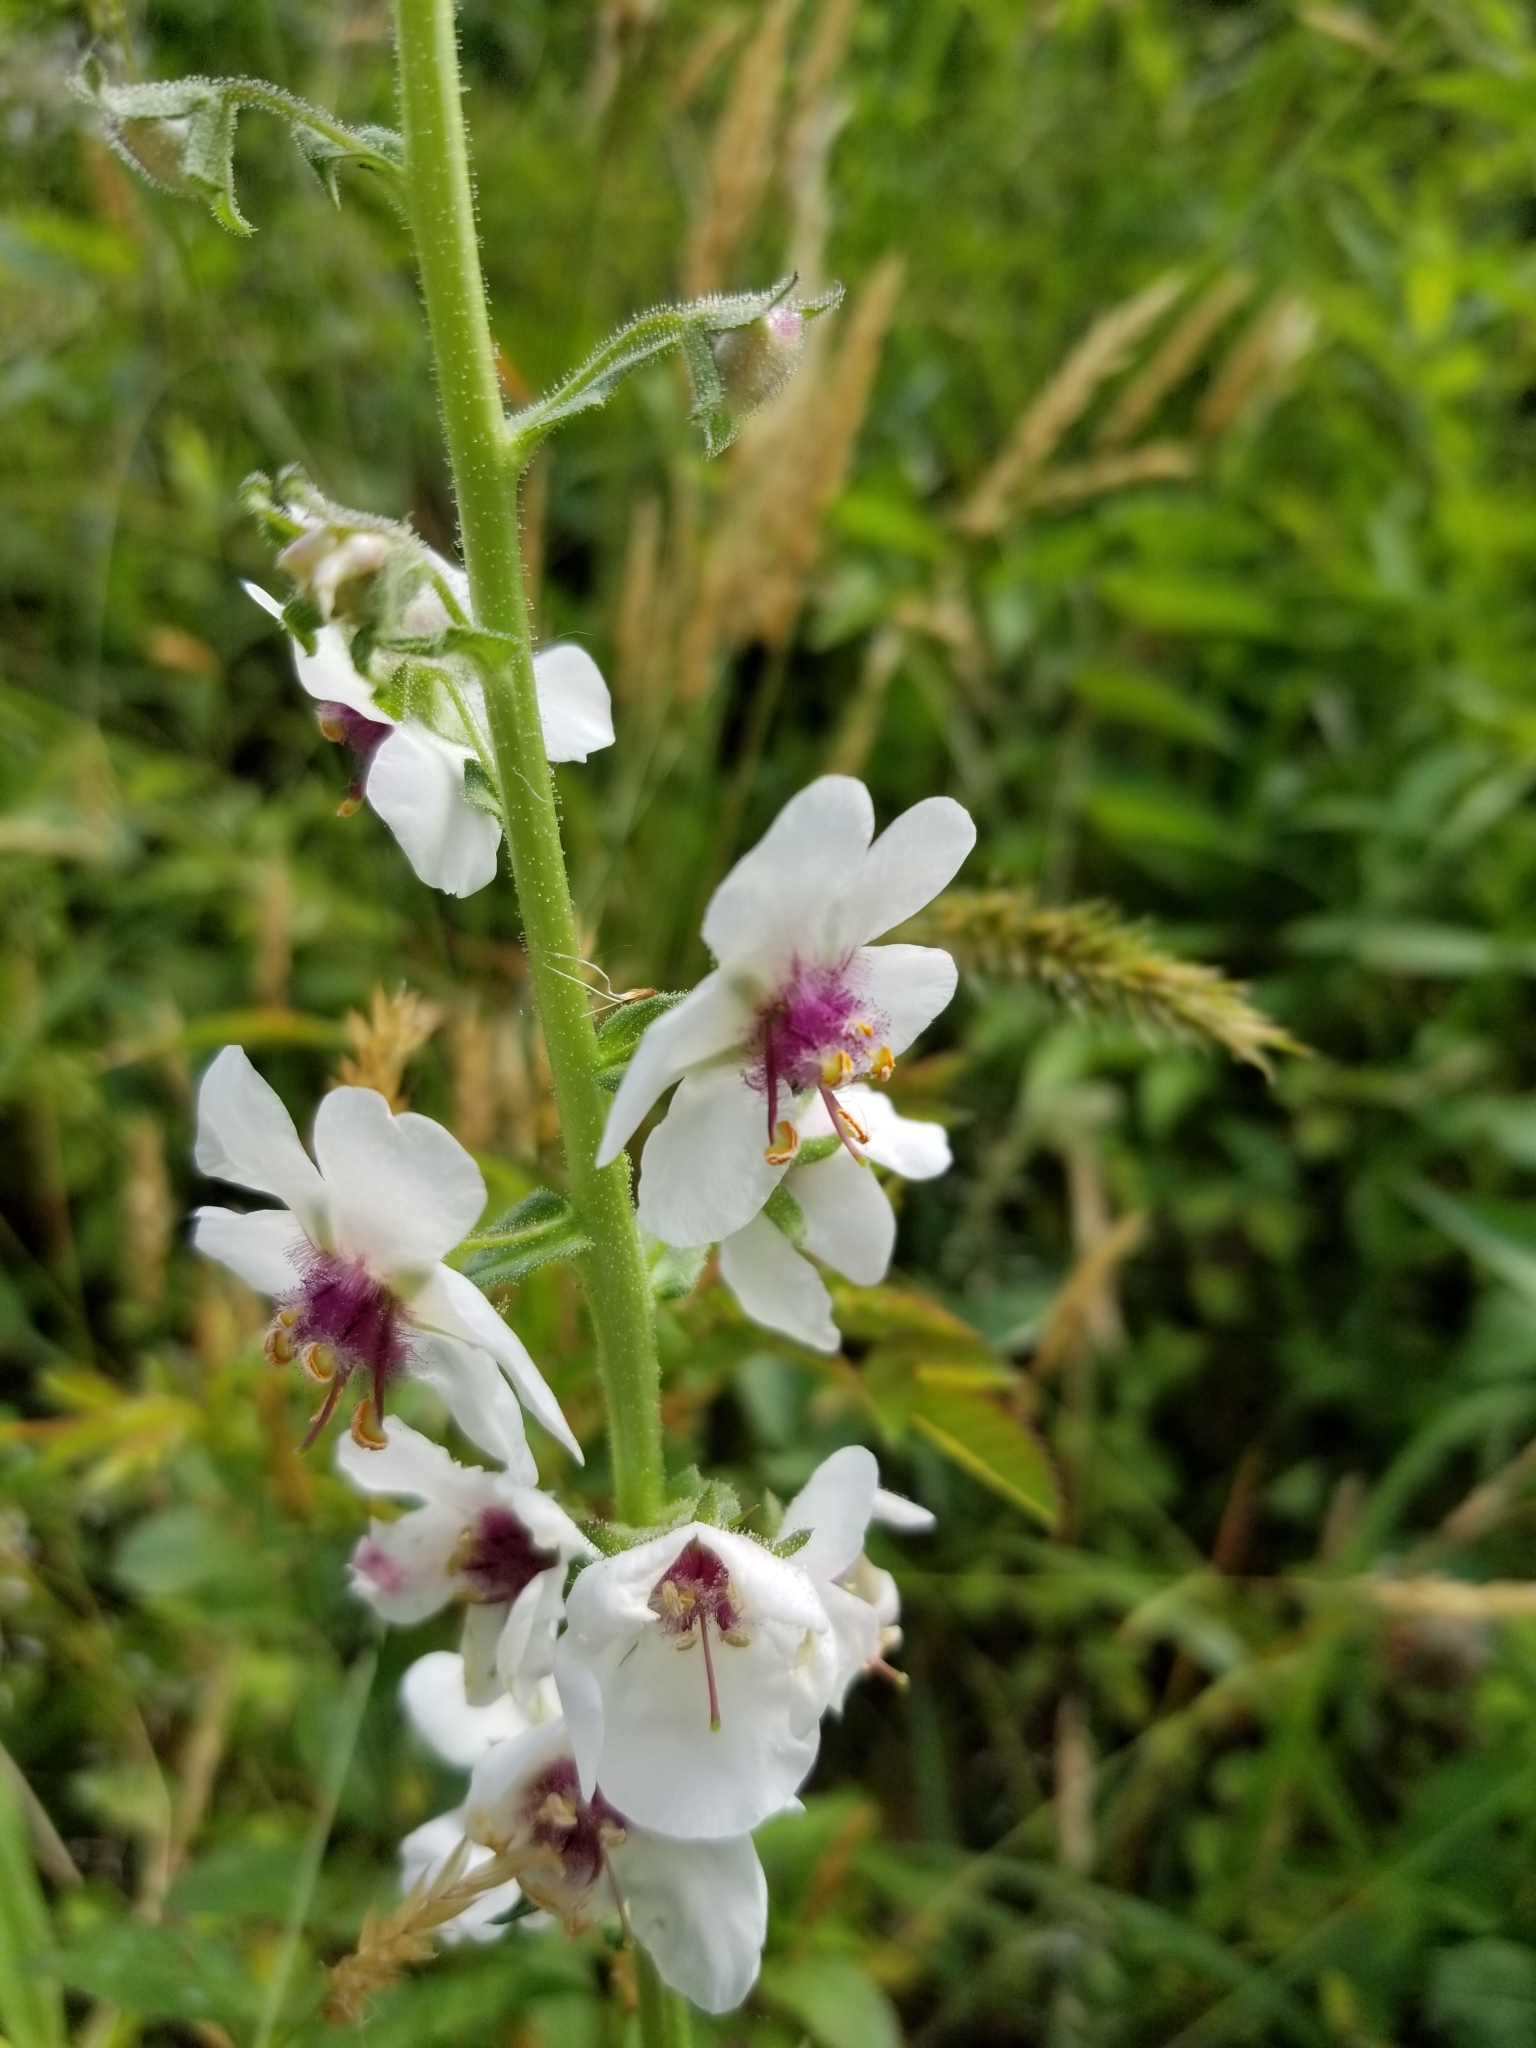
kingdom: Plantae
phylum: Tracheophyta
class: Magnoliopsida
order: Lamiales
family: Scrophulariaceae
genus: Verbascum
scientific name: Verbascum blattaria
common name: Moth mullein
